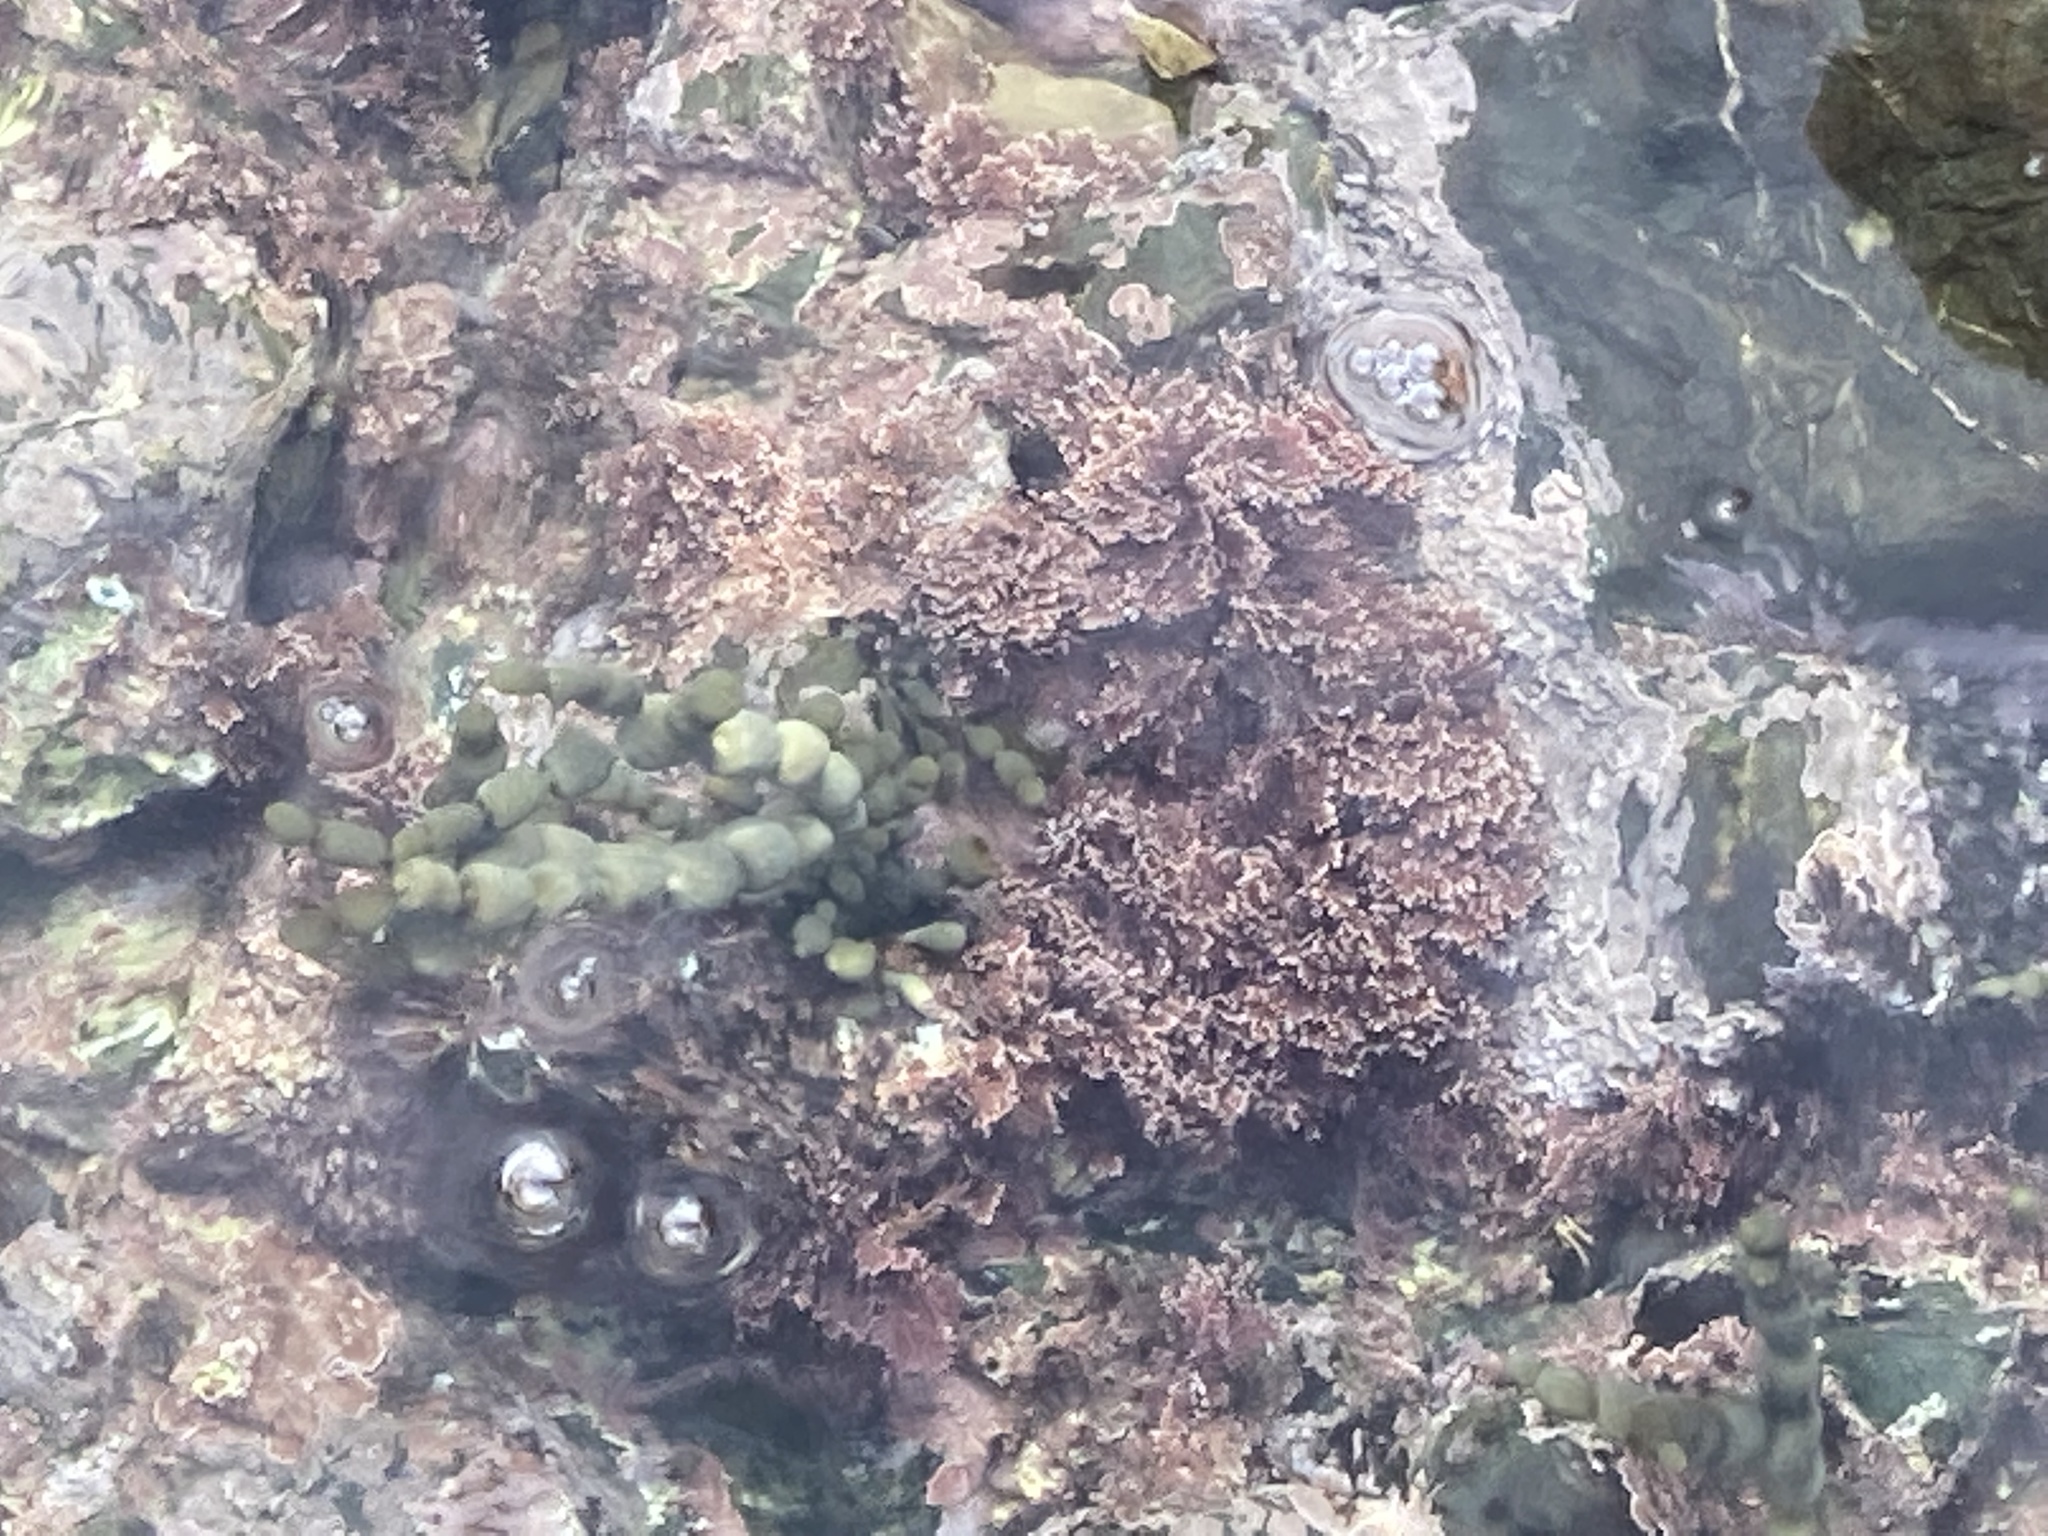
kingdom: Plantae
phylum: Rhodophyta
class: Florideophyceae
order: Corallinales
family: Corallinaceae
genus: Corallina
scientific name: Corallina officinalis
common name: Coral weed
